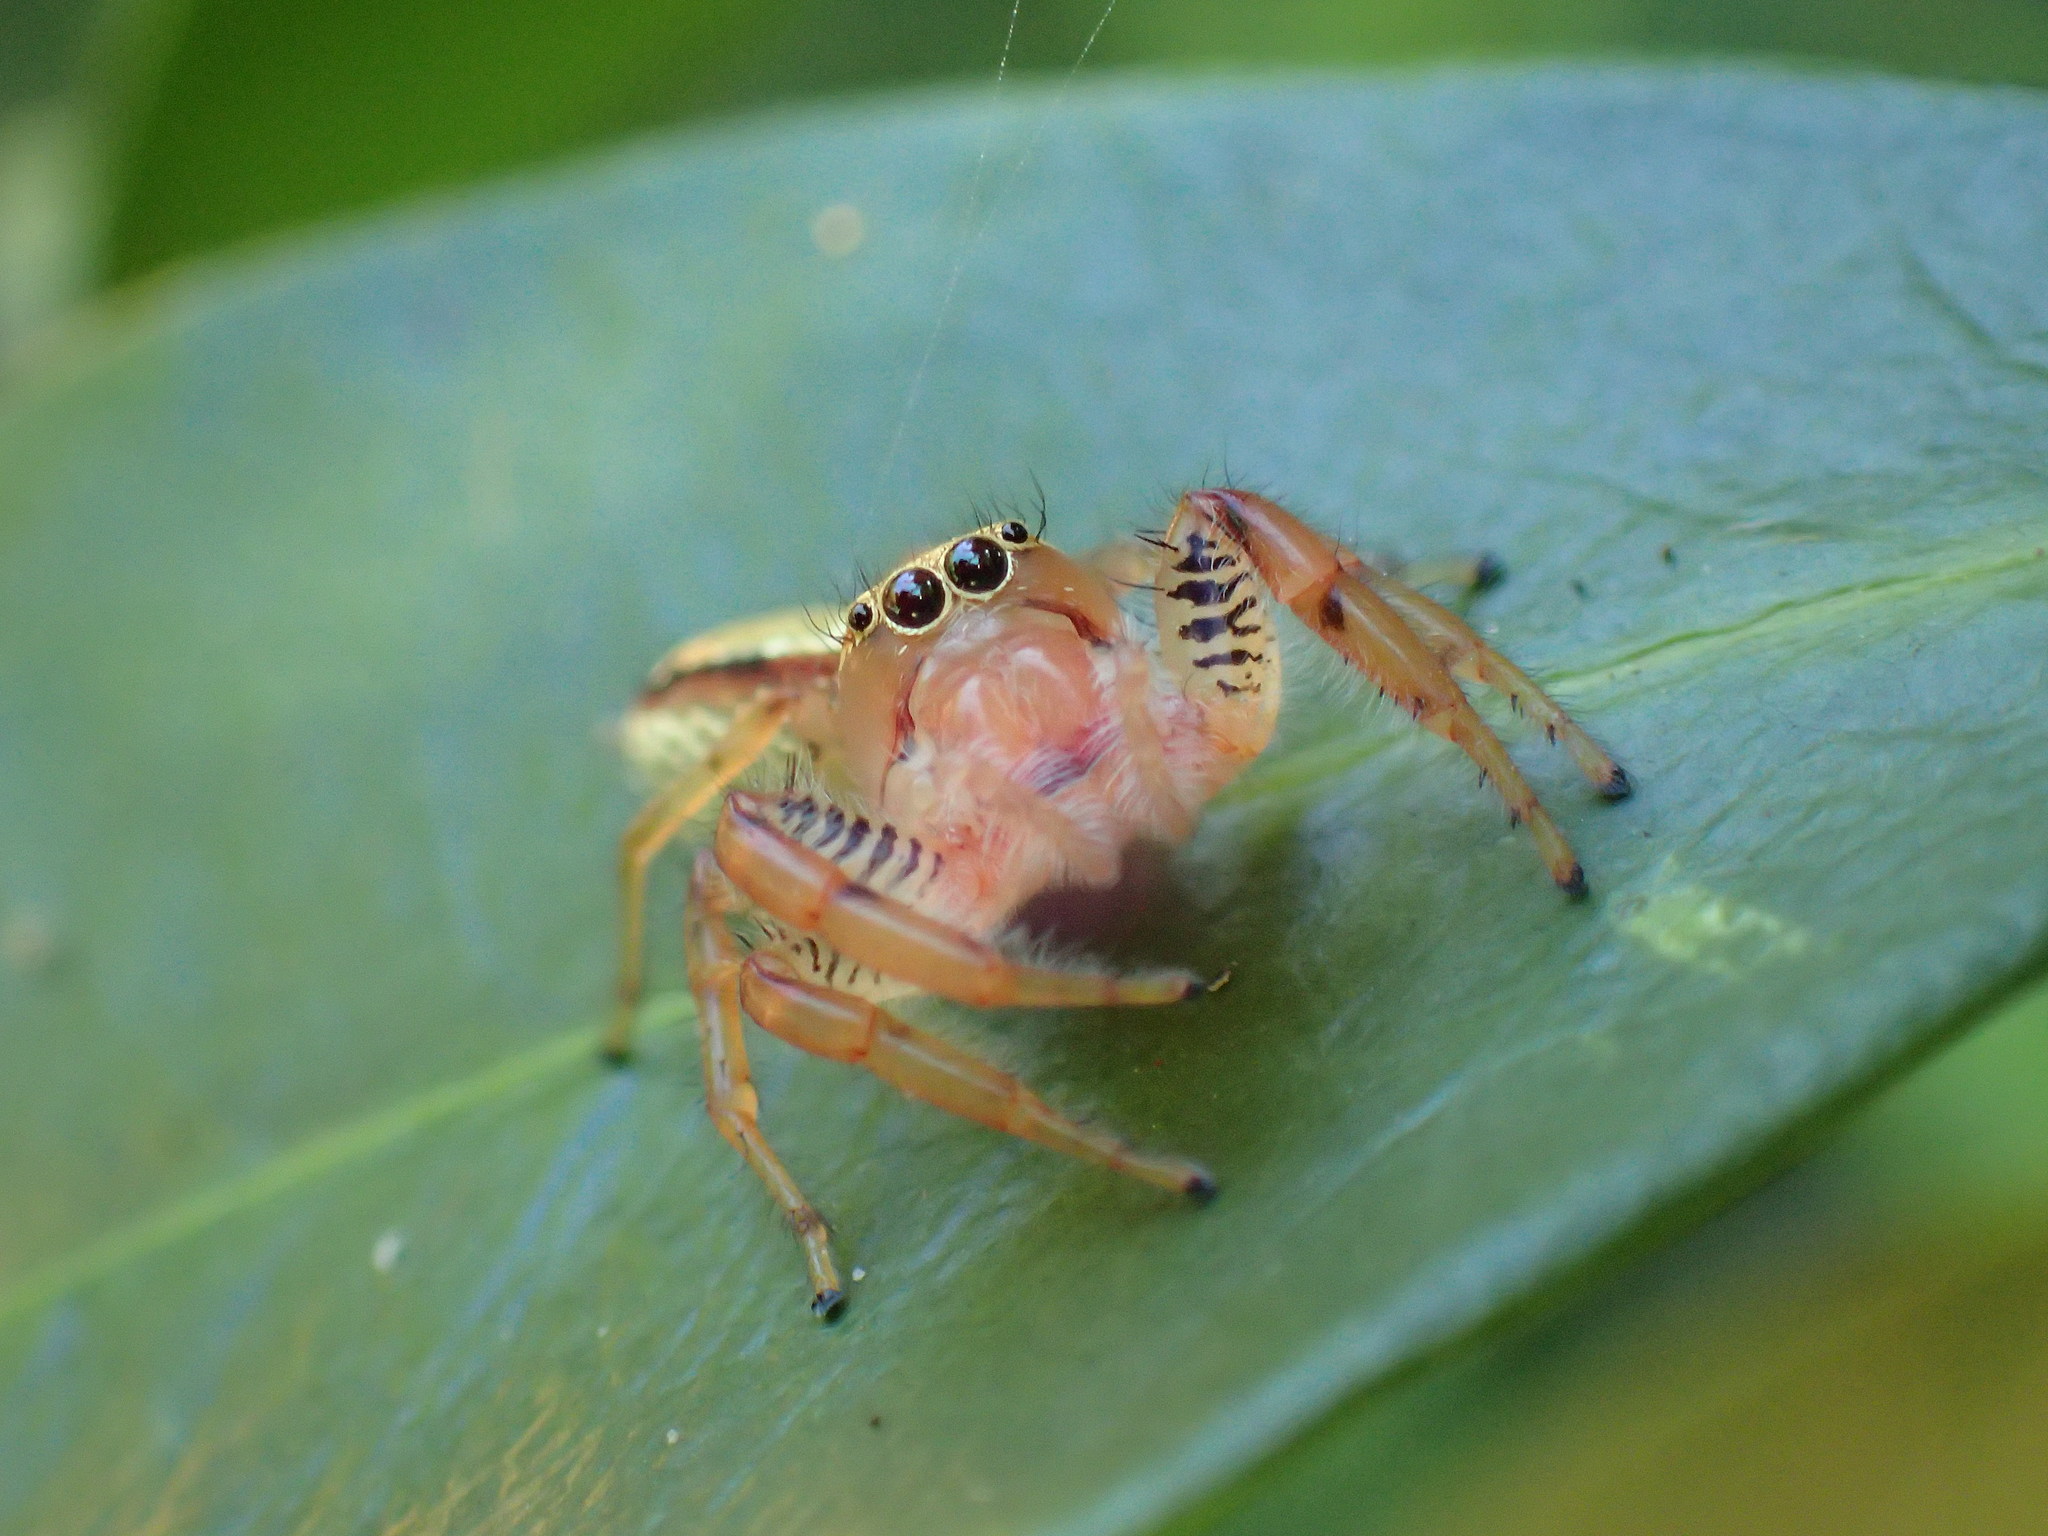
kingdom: Animalia
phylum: Arthropoda
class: Arachnida
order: Araneae
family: Salticidae
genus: Thyene
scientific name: Thyene ogdeni
